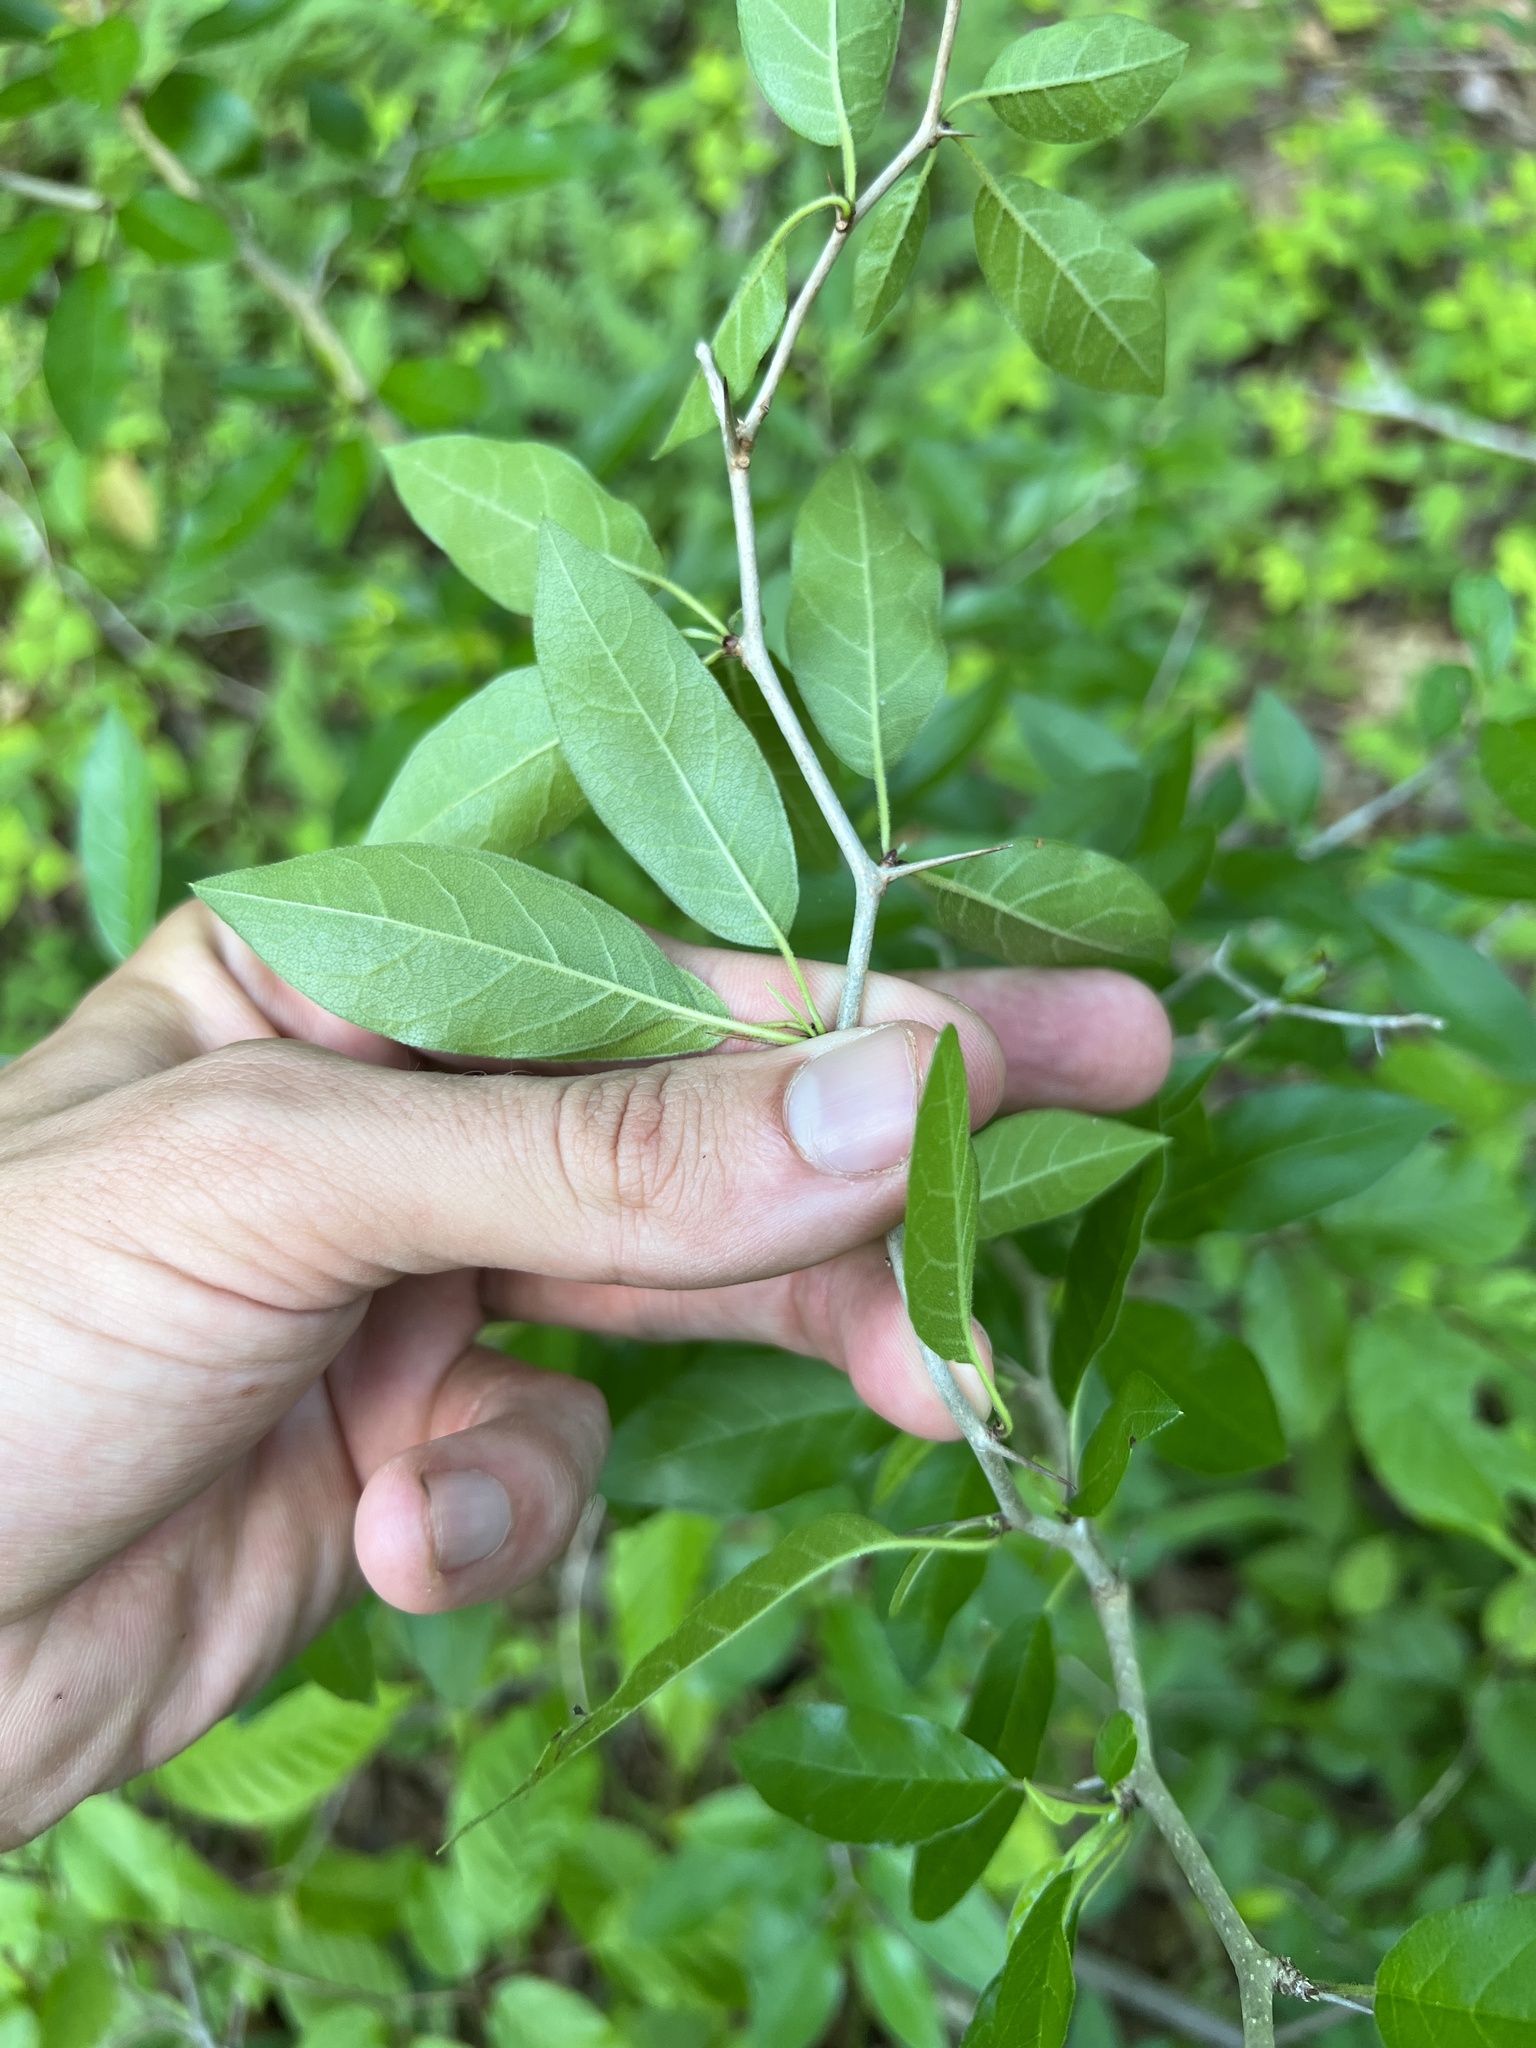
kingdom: Plantae
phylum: Tracheophyta
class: Magnoliopsida
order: Rosales
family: Moraceae
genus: Maclura
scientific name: Maclura pomifera
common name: Osage-orange
